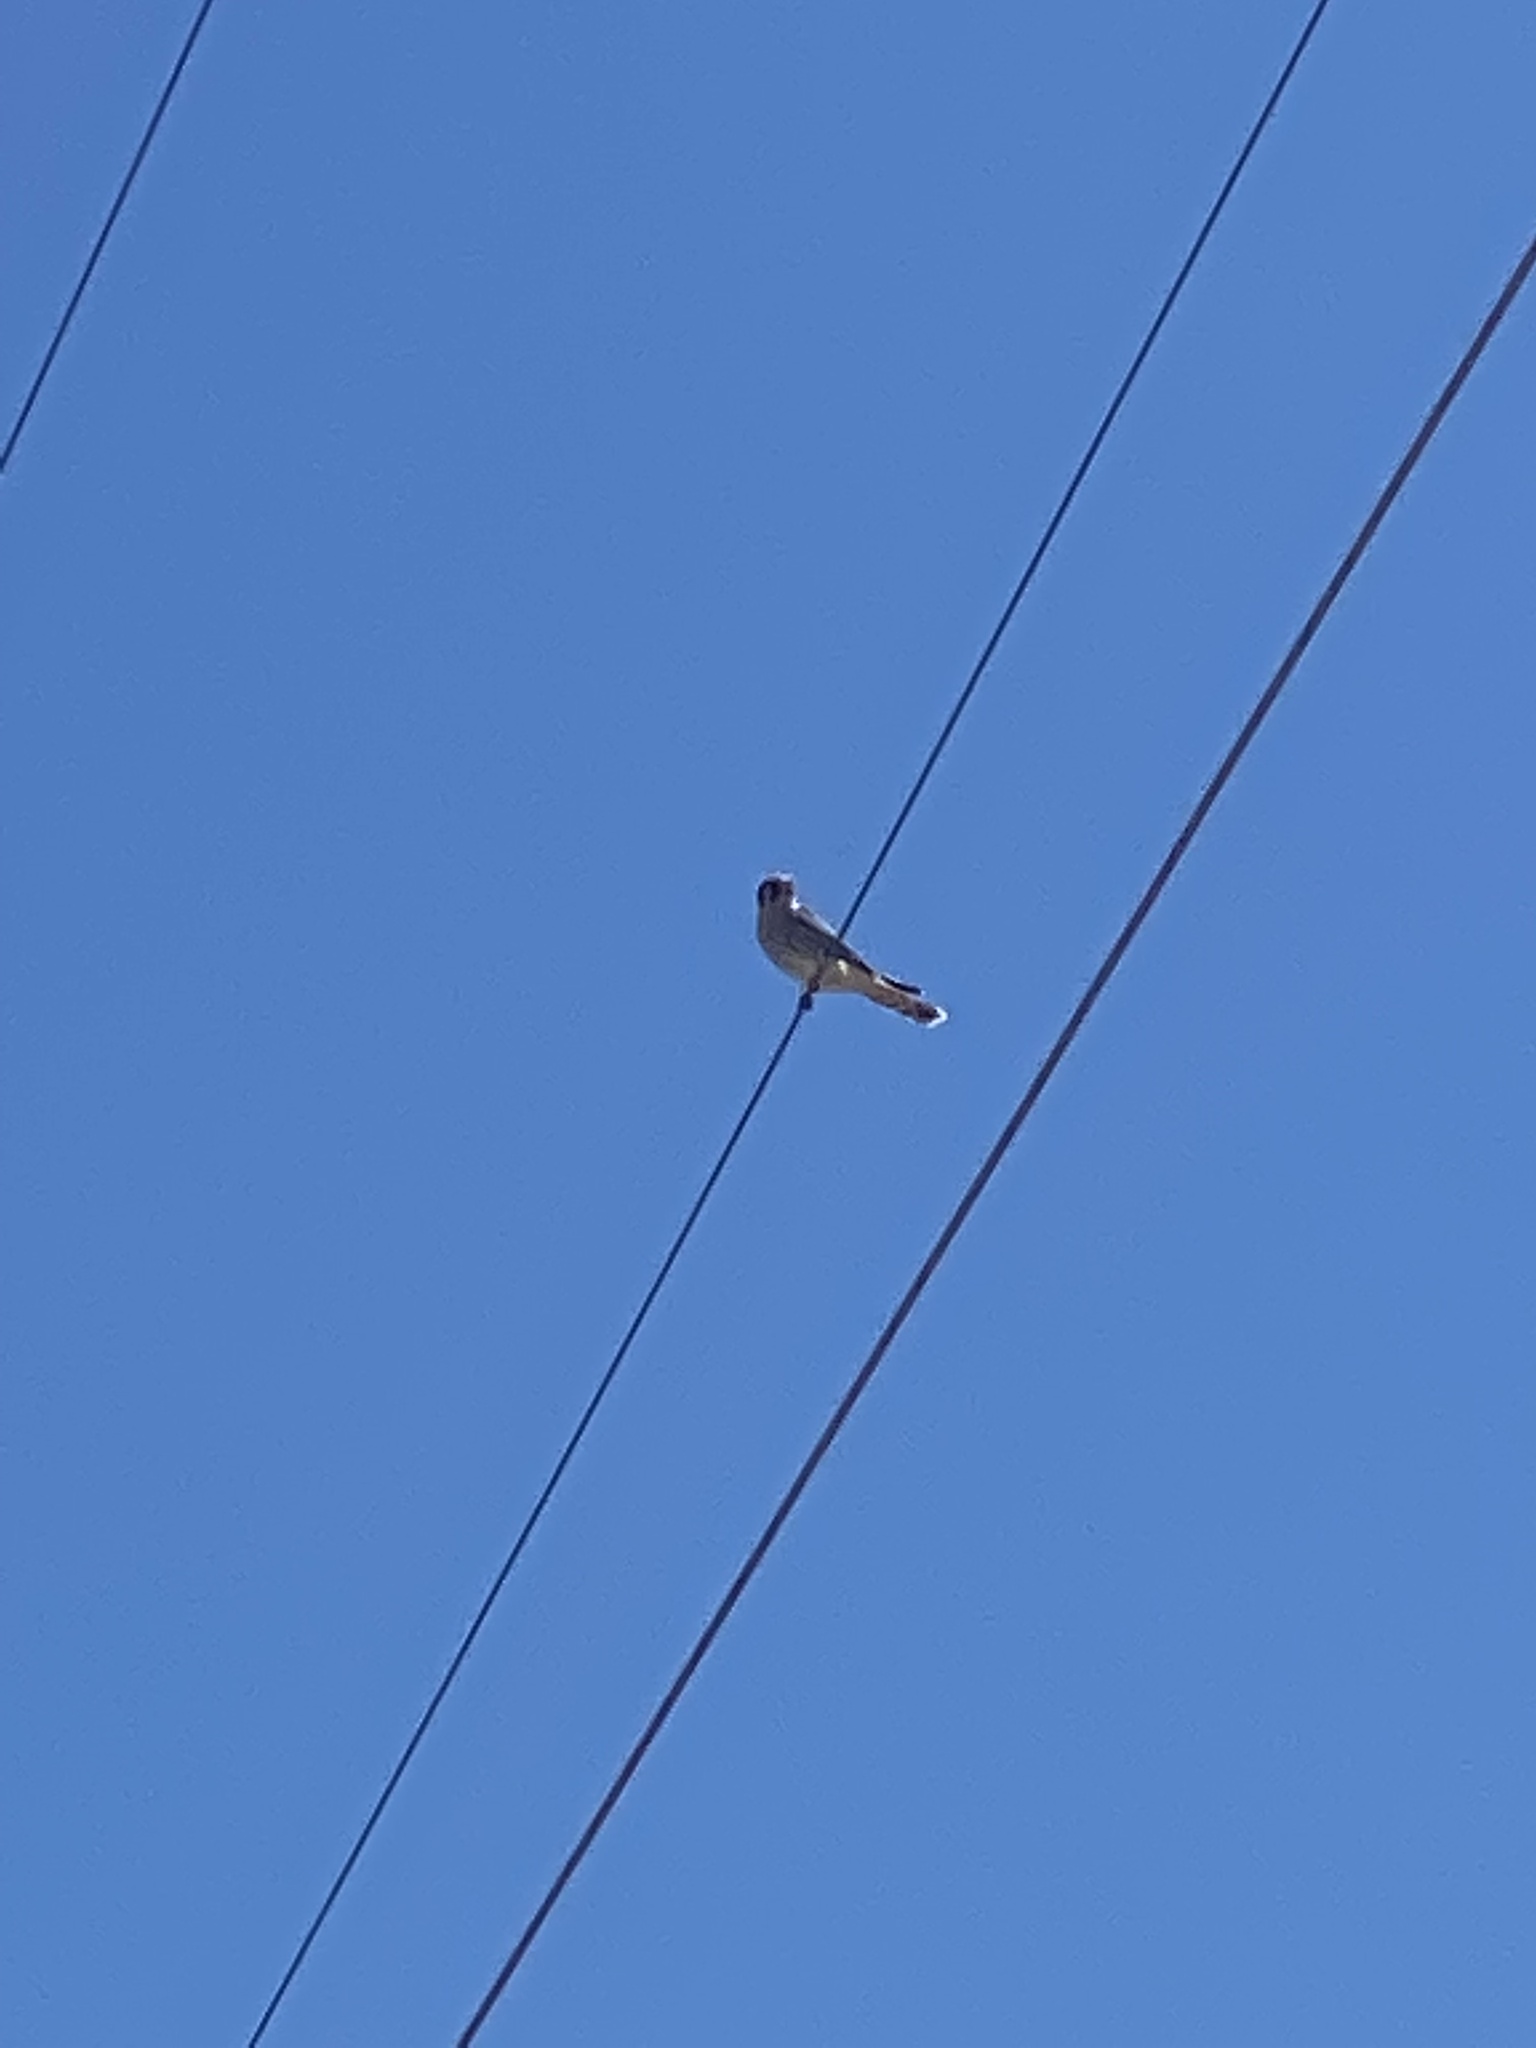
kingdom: Animalia
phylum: Chordata
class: Aves
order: Falconiformes
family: Falconidae
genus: Falco
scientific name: Falco sparverius
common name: American kestrel
